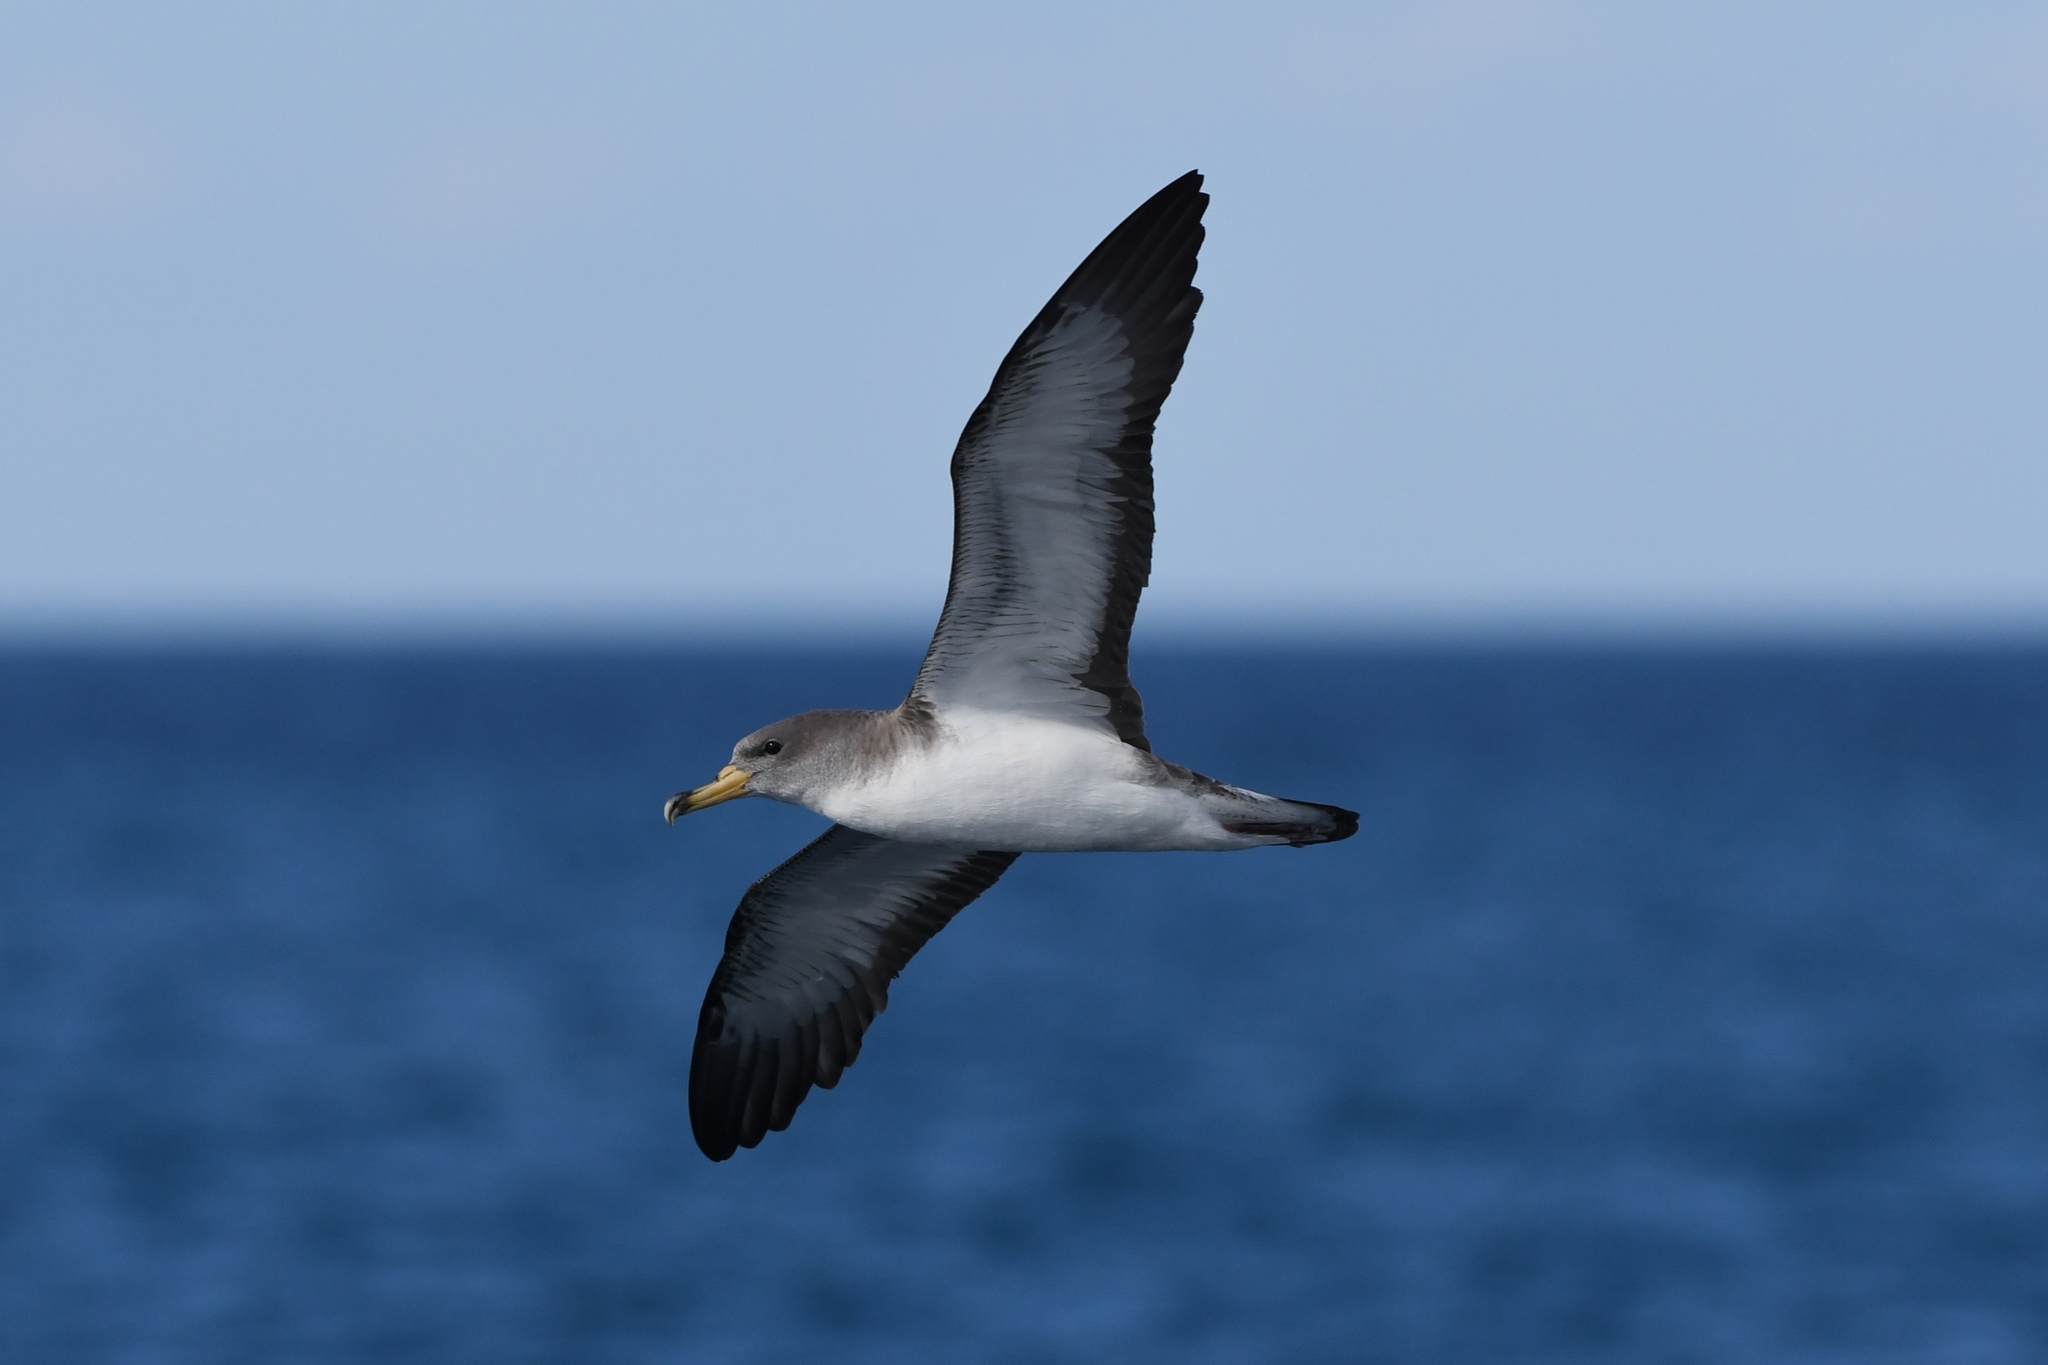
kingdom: Animalia
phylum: Chordata
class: Aves
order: Procellariiformes
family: Procellariidae
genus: Calonectris
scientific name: Calonectris diomedea
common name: Cory's shearwater
